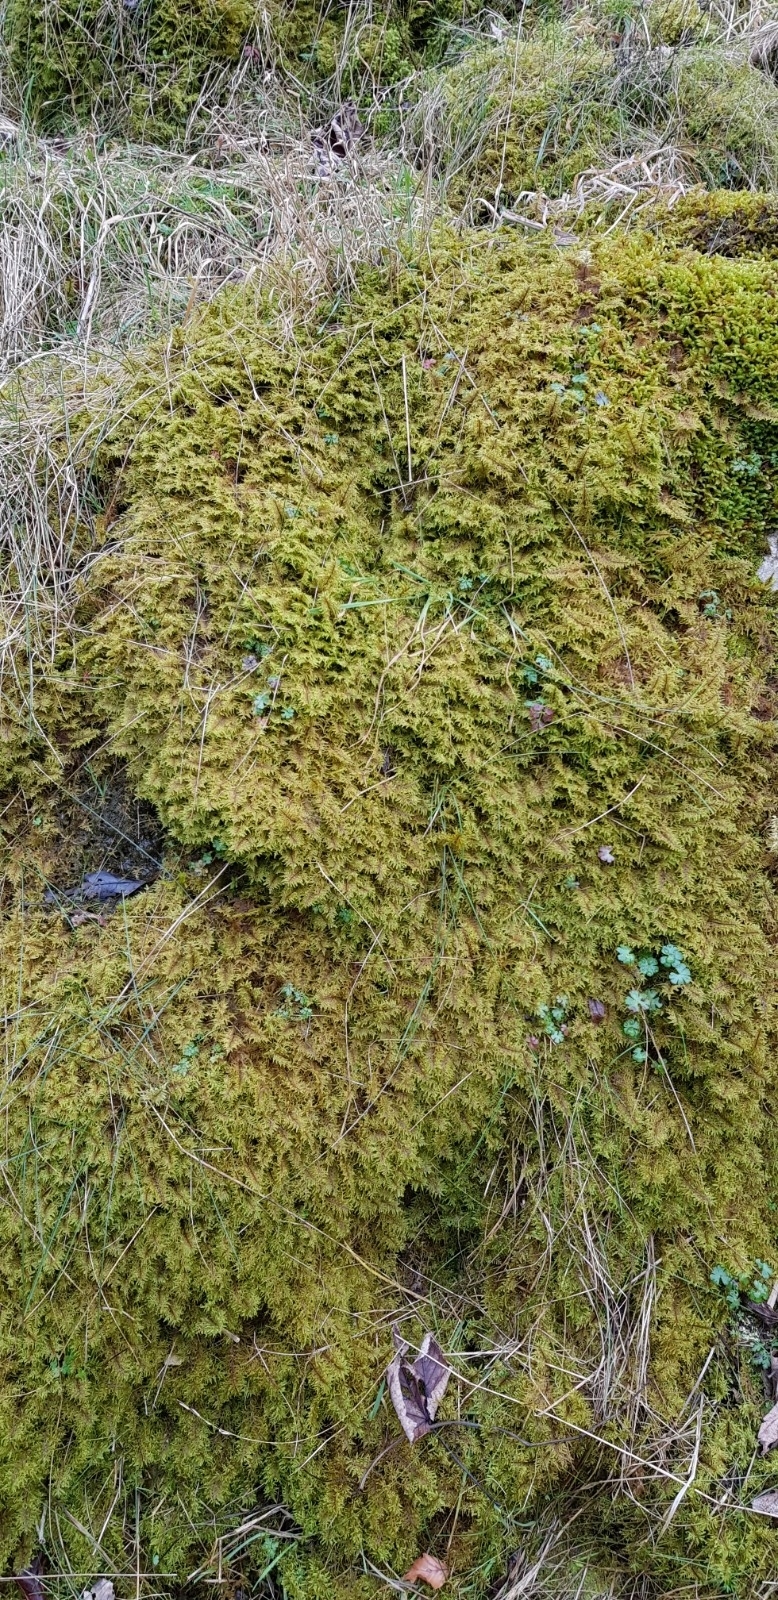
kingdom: Plantae
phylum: Bryophyta
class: Bryopsida
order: Hypnales
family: Hylocomiaceae
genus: Hylocomium
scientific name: Hylocomium splendens
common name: Stairstep moss
